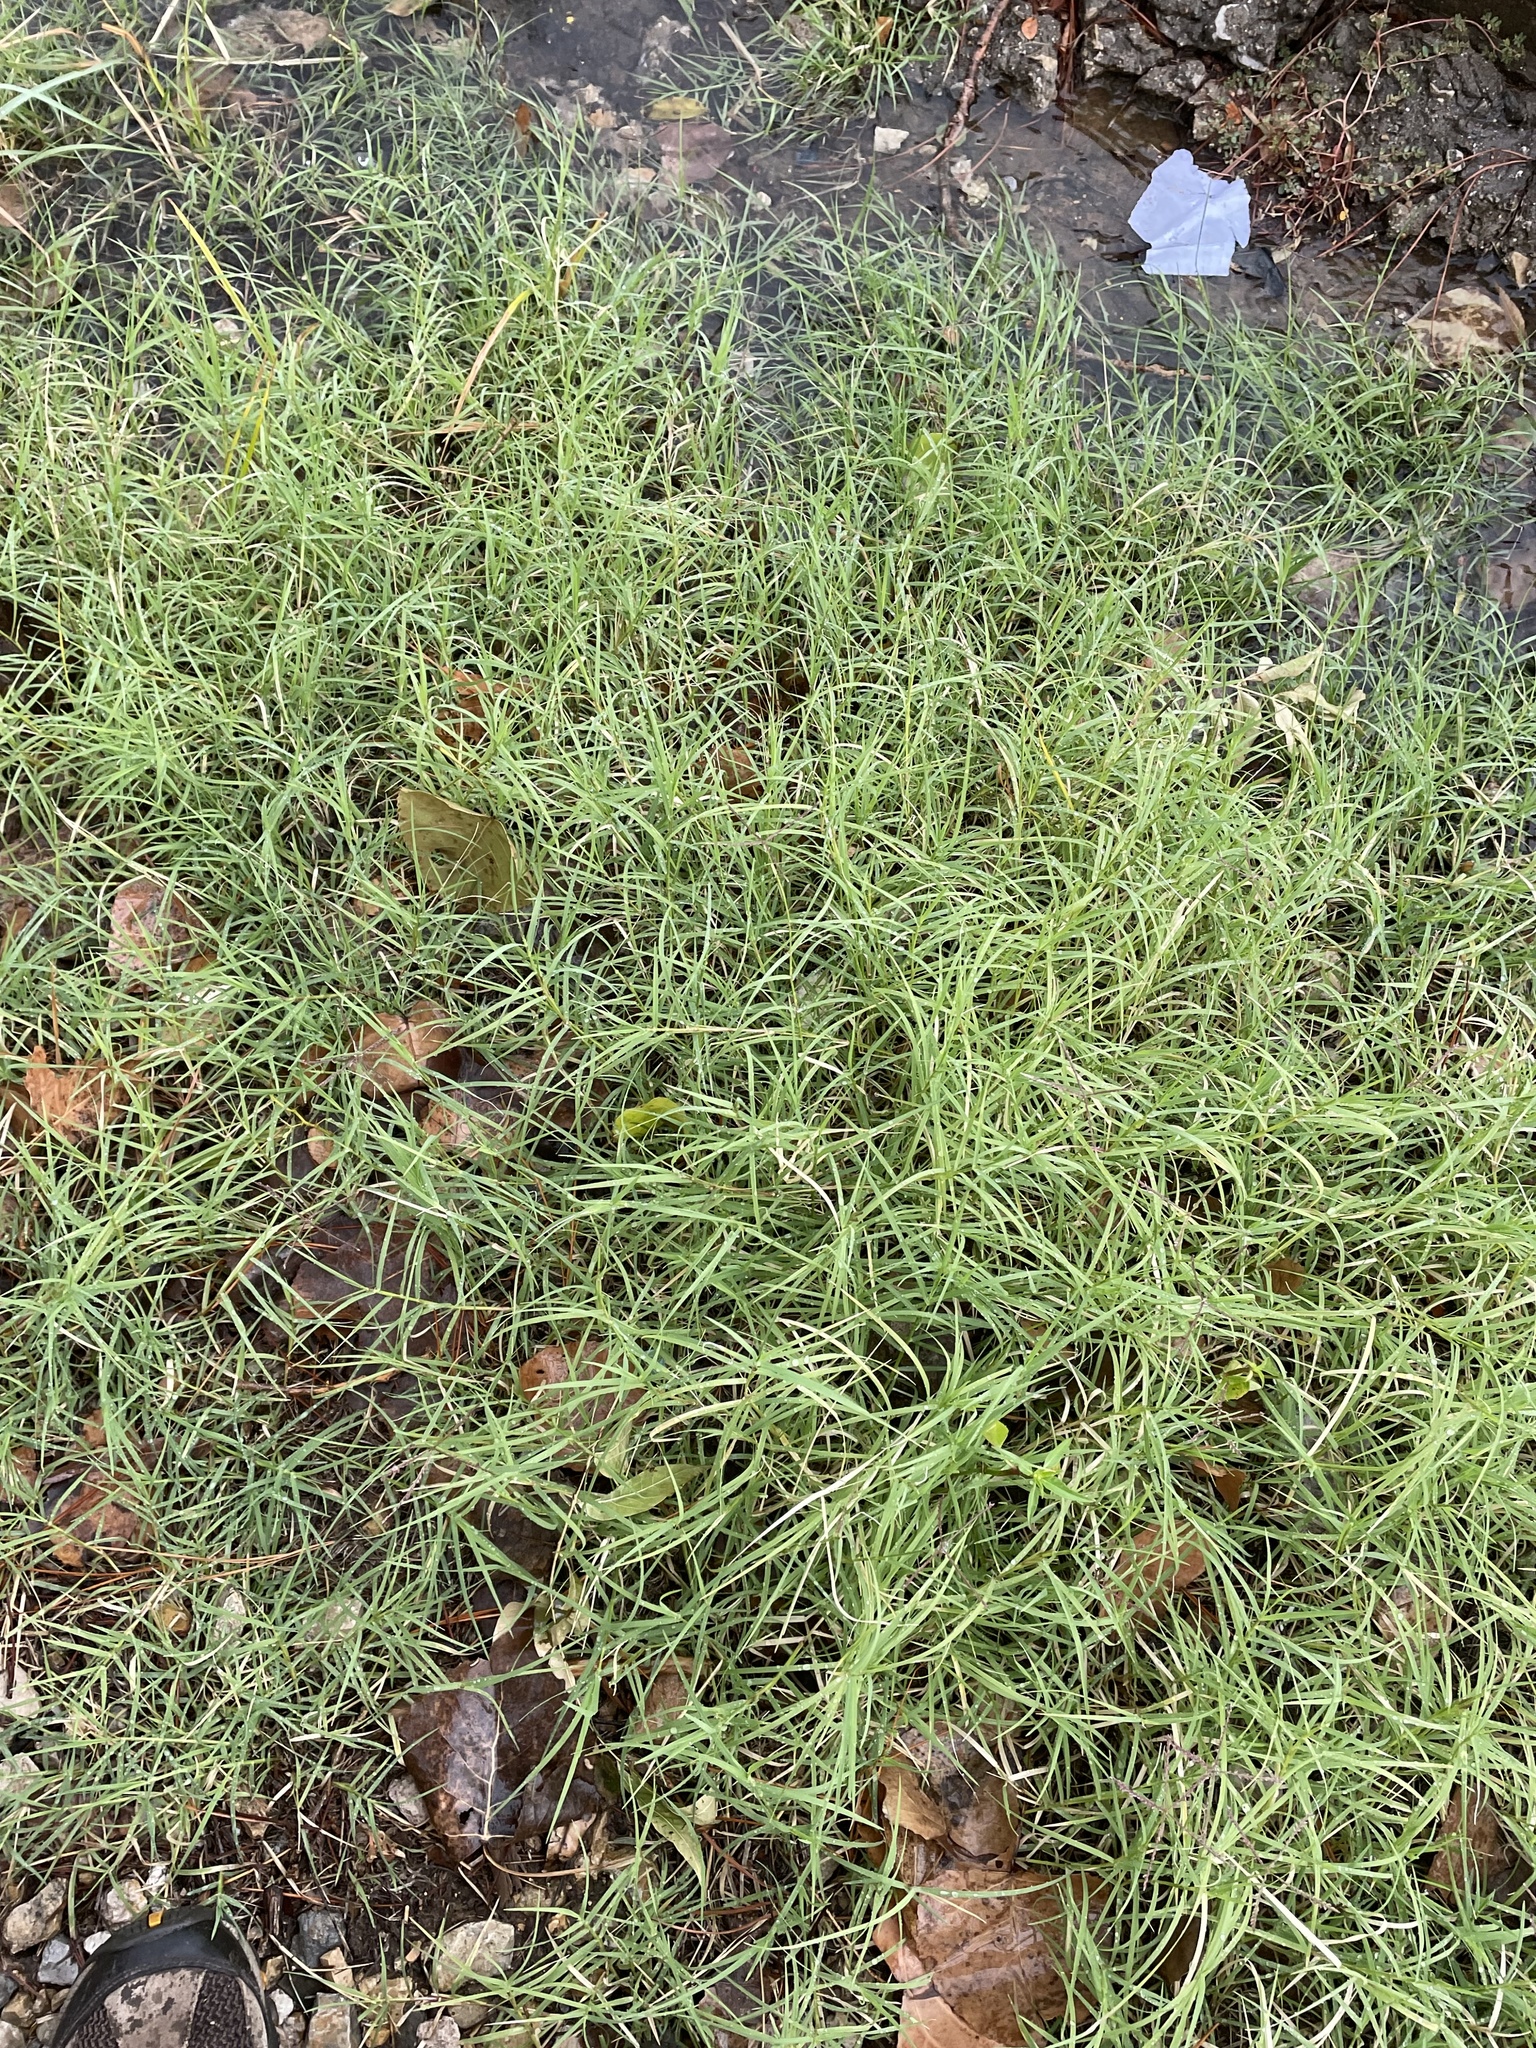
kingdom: Plantae
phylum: Tracheophyta
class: Liliopsida
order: Poales
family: Poaceae
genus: Cynodon
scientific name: Cynodon dactylon
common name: Bermuda grass
